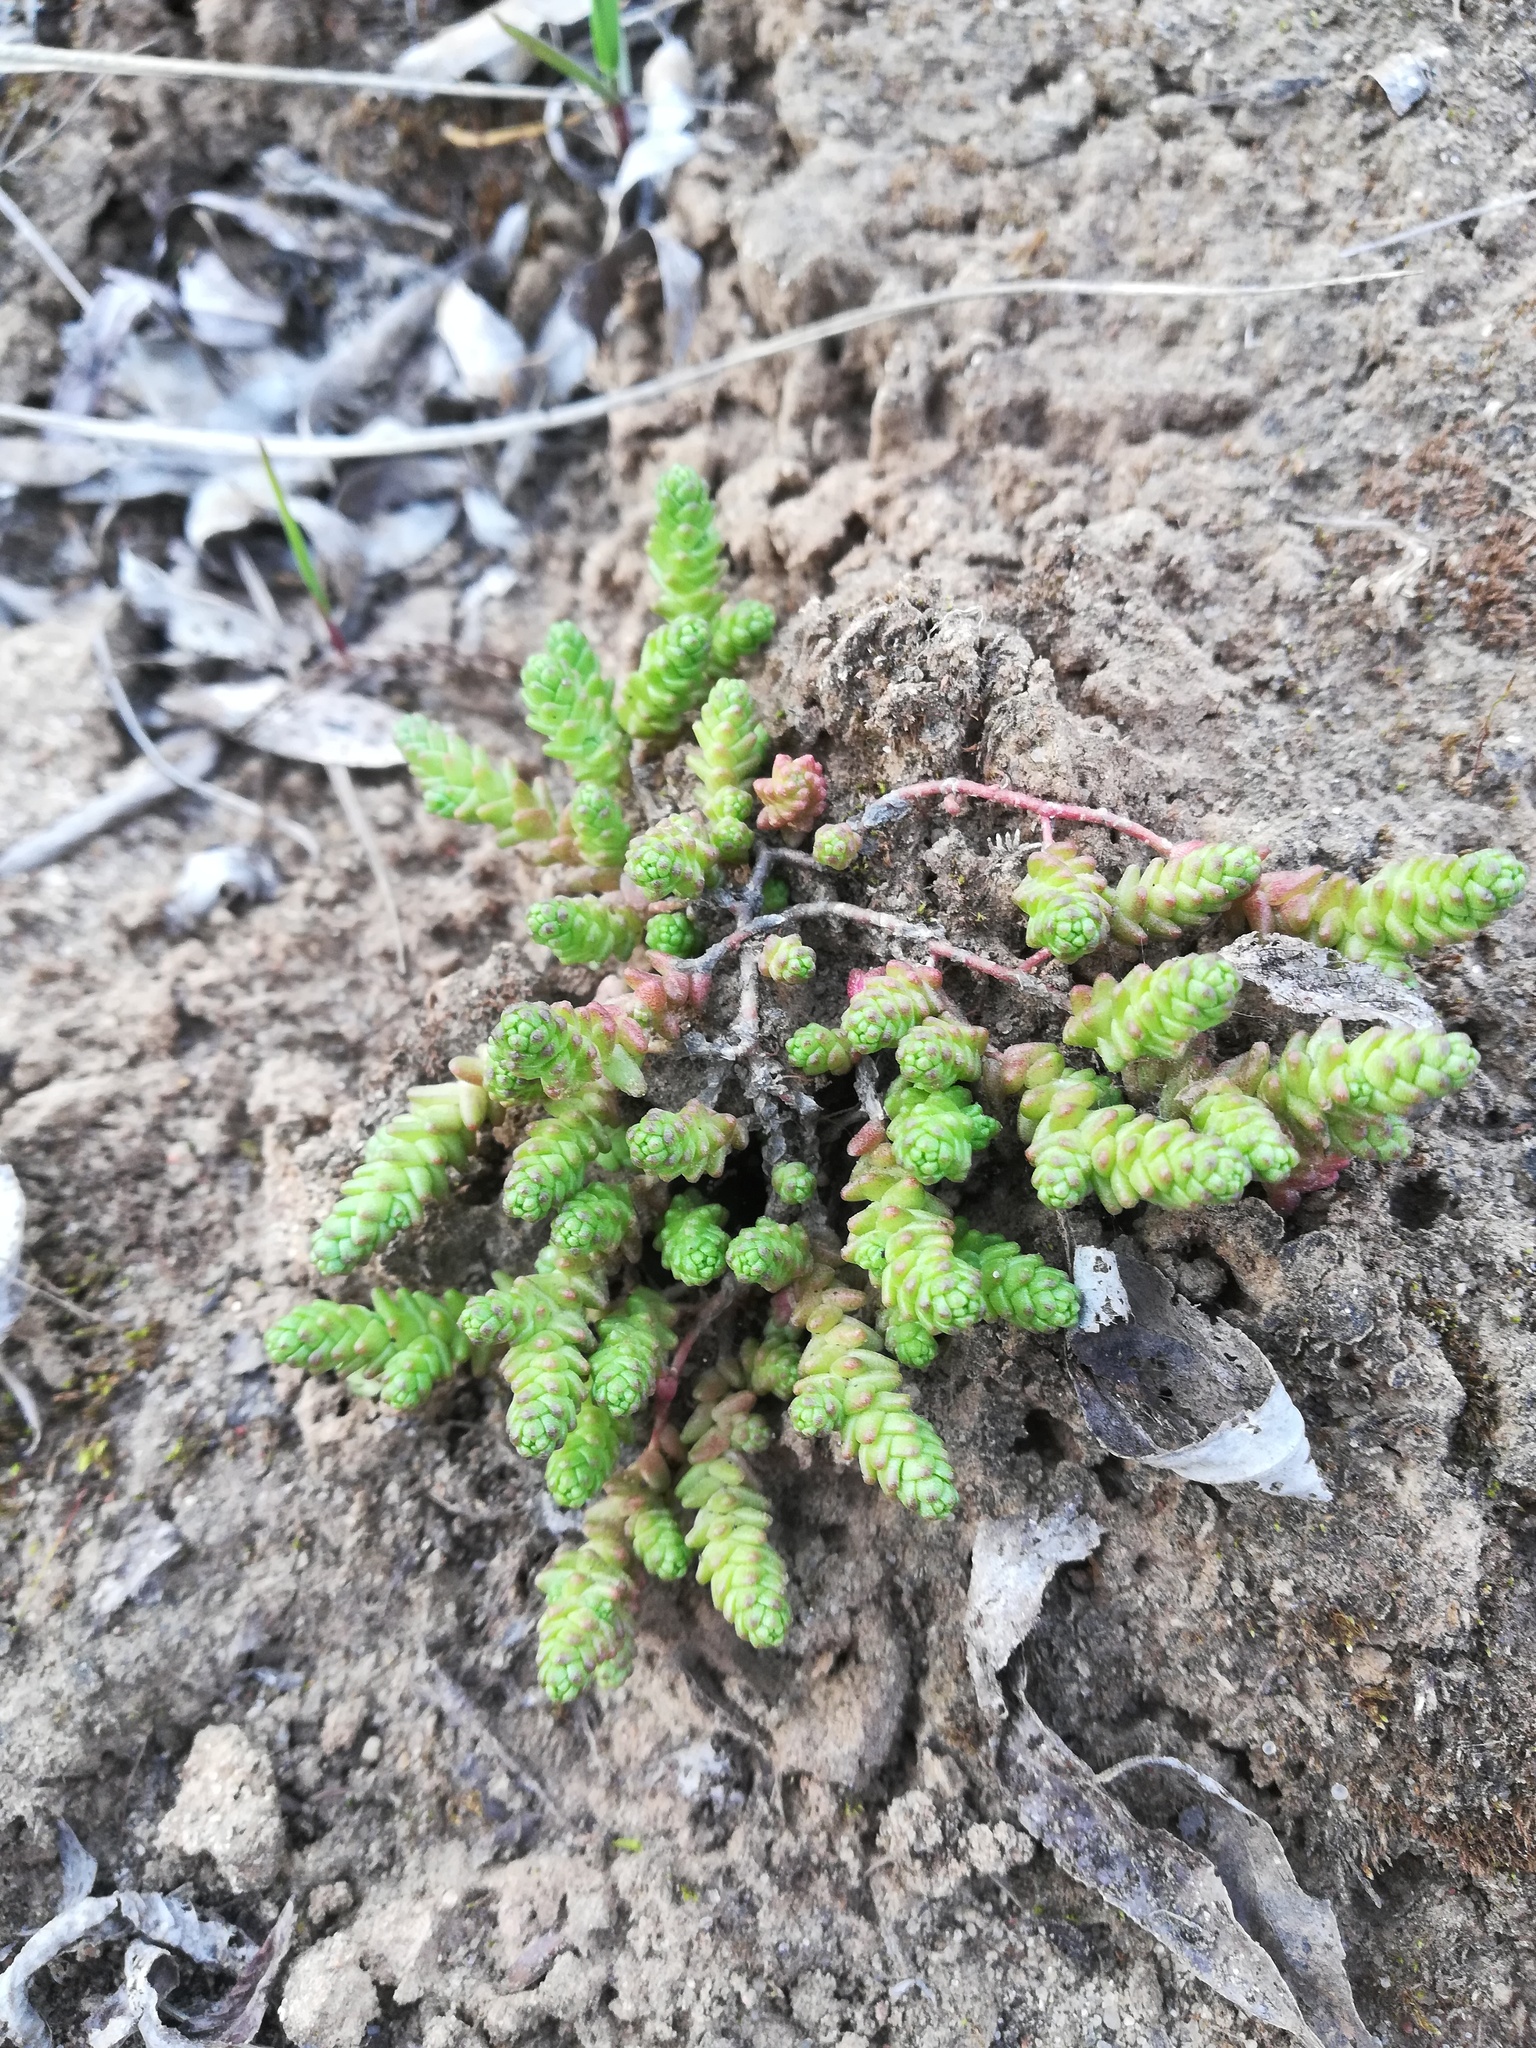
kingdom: Plantae
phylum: Tracheophyta
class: Magnoliopsida
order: Saxifragales
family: Crassulaceae
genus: Sedum
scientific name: Sedum acre
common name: Biting stonecrop
